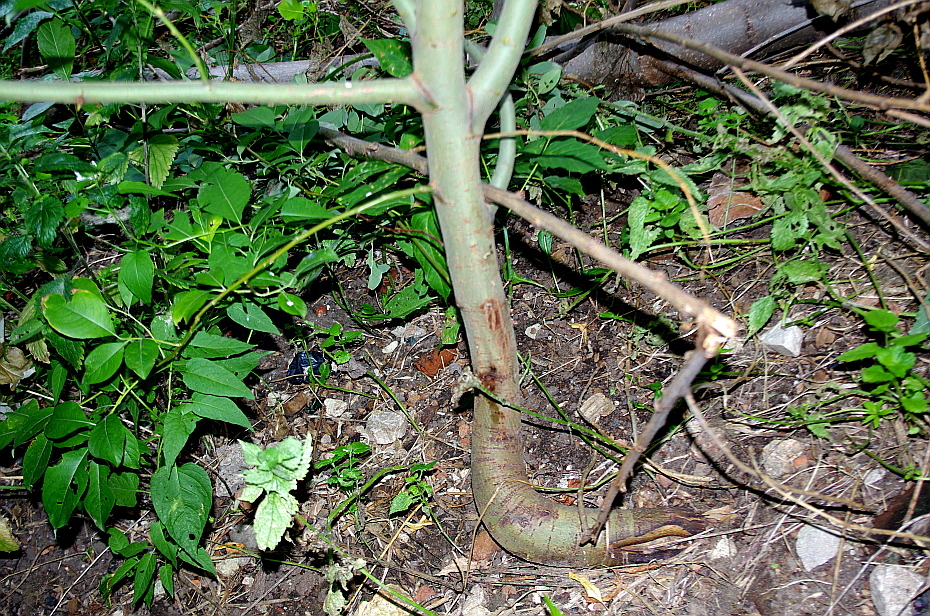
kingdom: Plantae
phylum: Tracheophyta
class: Magnoliopsida
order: Malpighiales
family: Salicaceae
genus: Salix
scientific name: Salix caprea
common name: Goat willow
